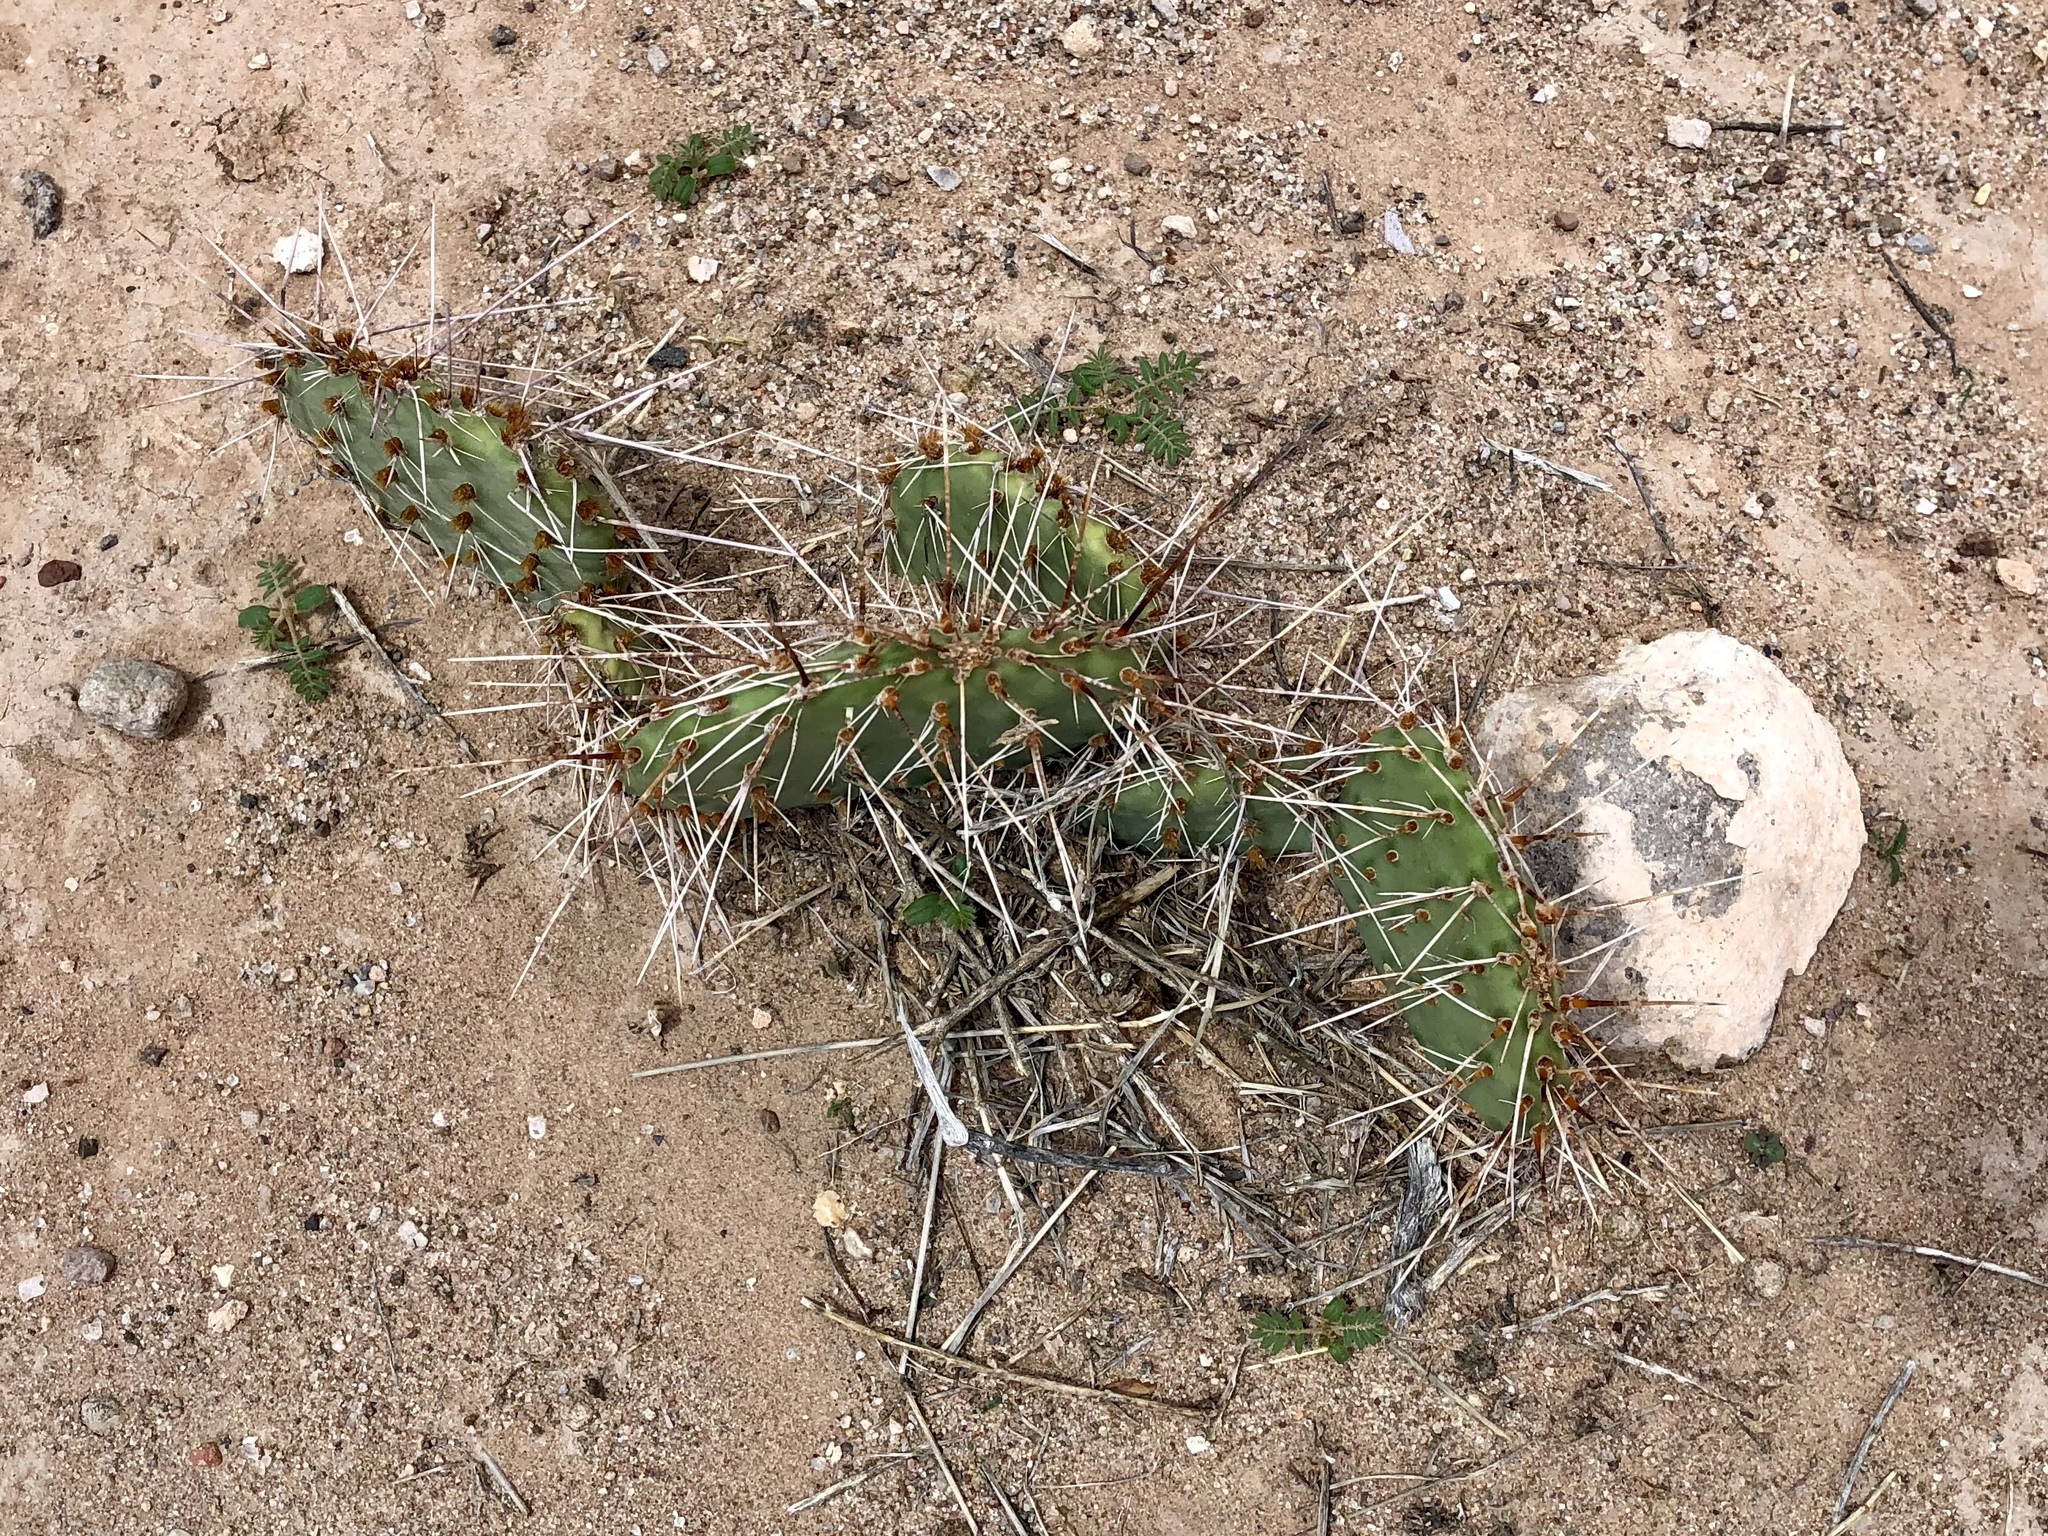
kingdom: Plantae
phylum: Tracheophyta
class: Magnoliopsida
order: Caryophyllales
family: Cactaceae
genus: Opuntia
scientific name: Opuntia macrorhiza
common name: Grassland pricklypear
